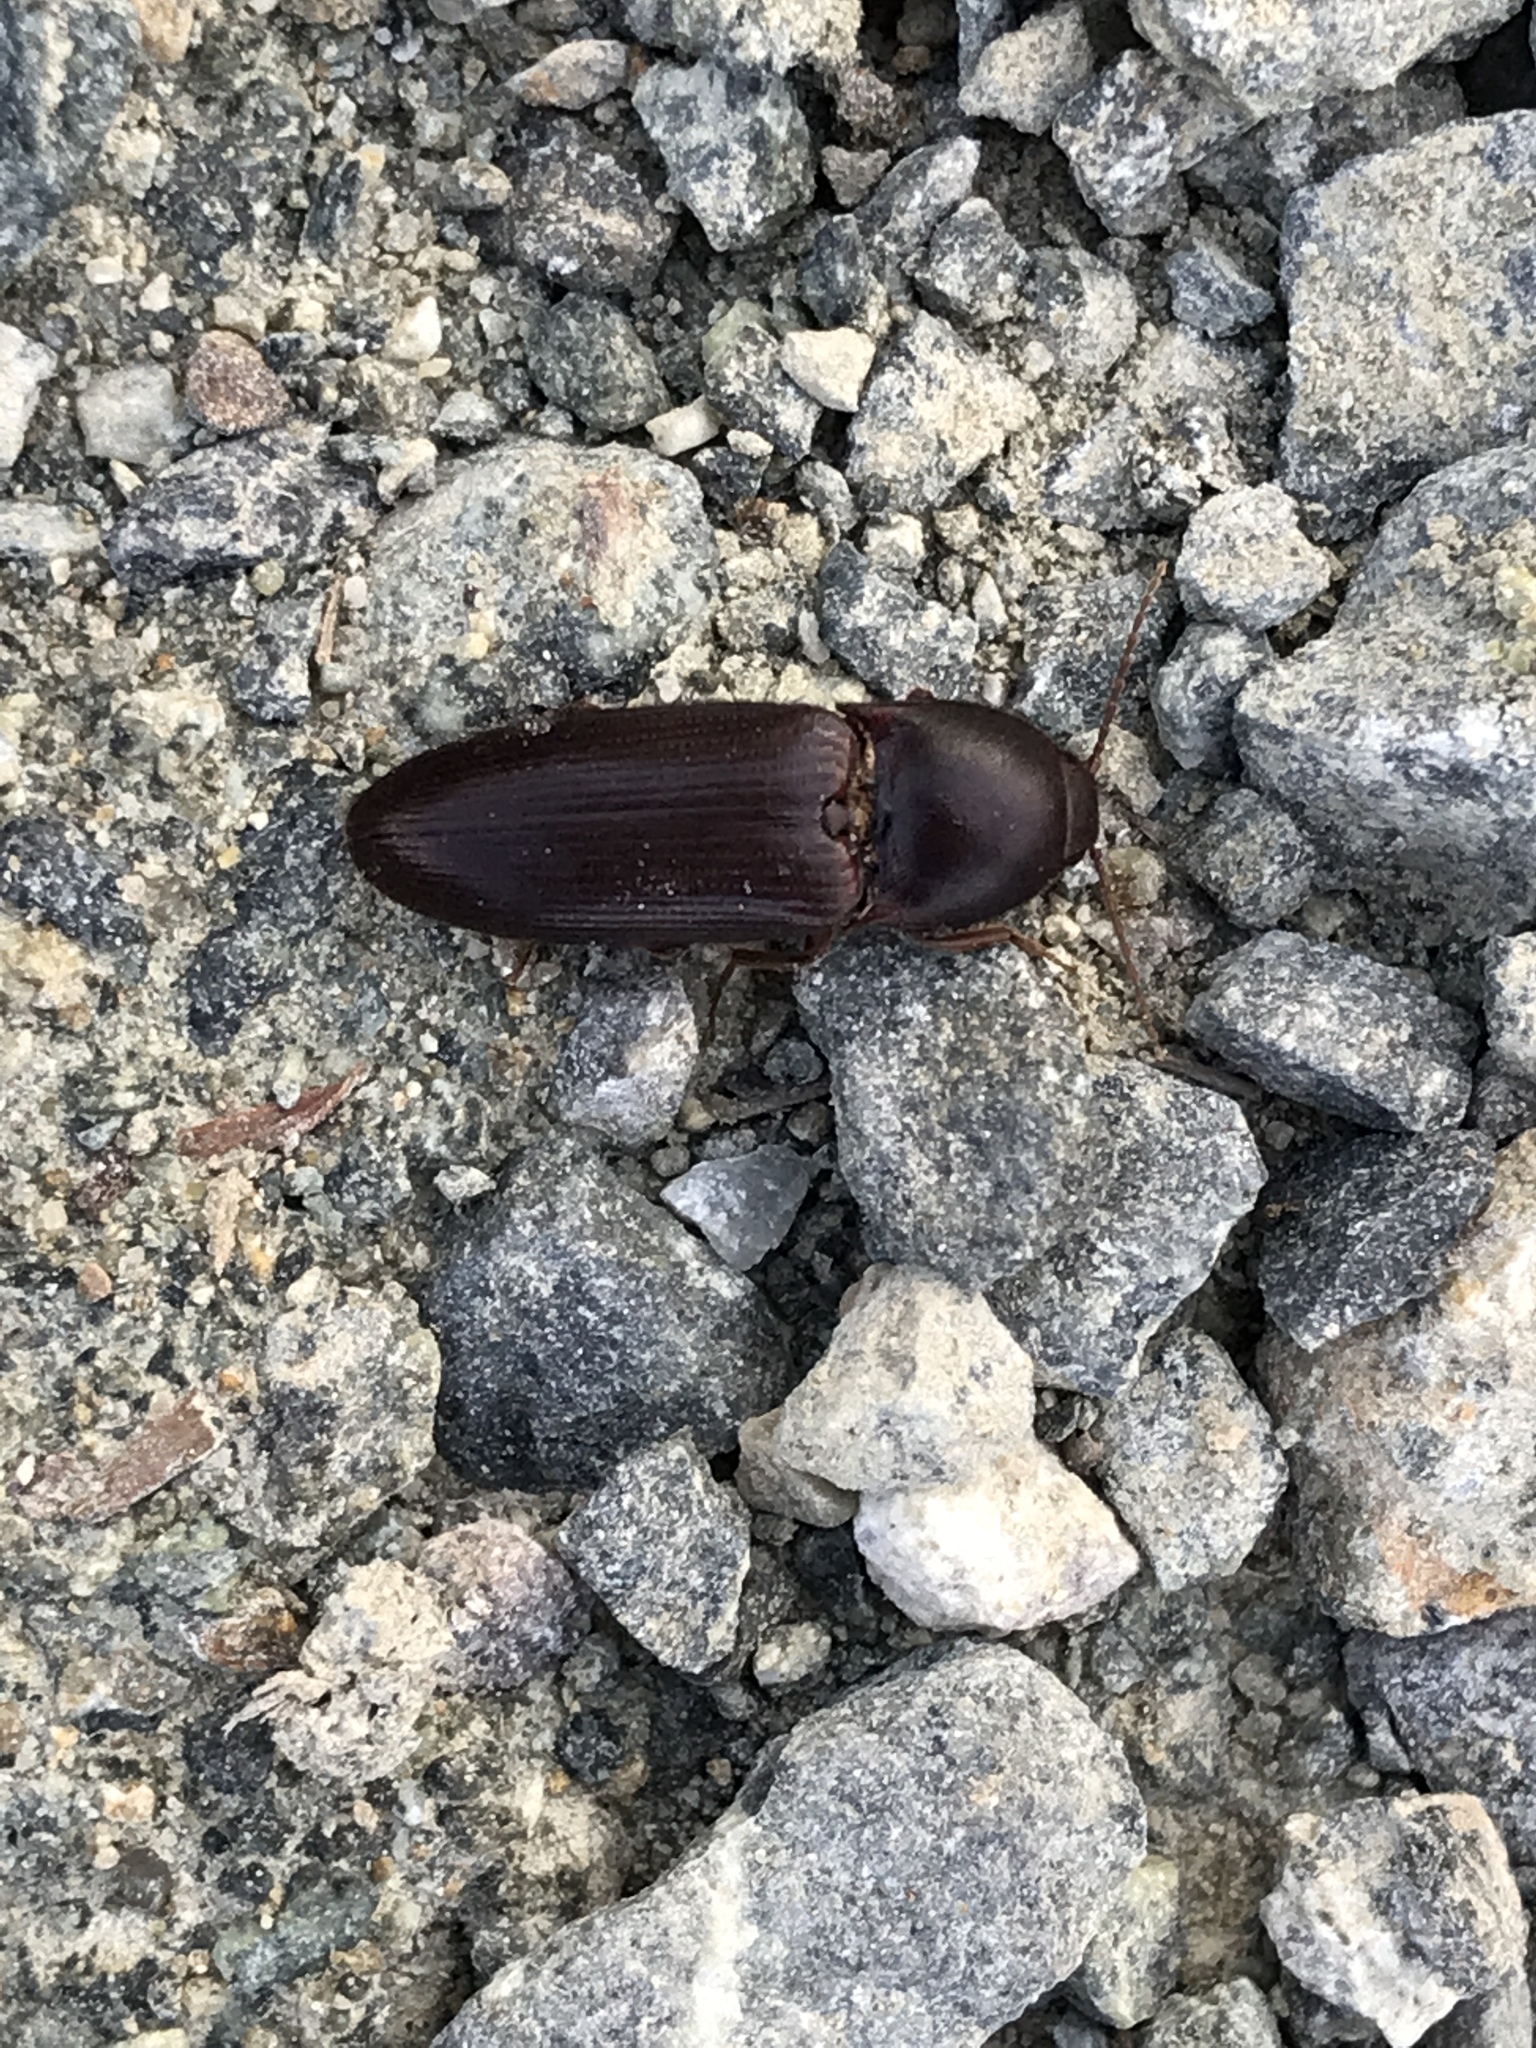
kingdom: Animalia
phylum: Arthropoda
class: Insecta
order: Coleoptera
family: Elateridae
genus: Ampedus
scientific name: Ampedus rhodopus
